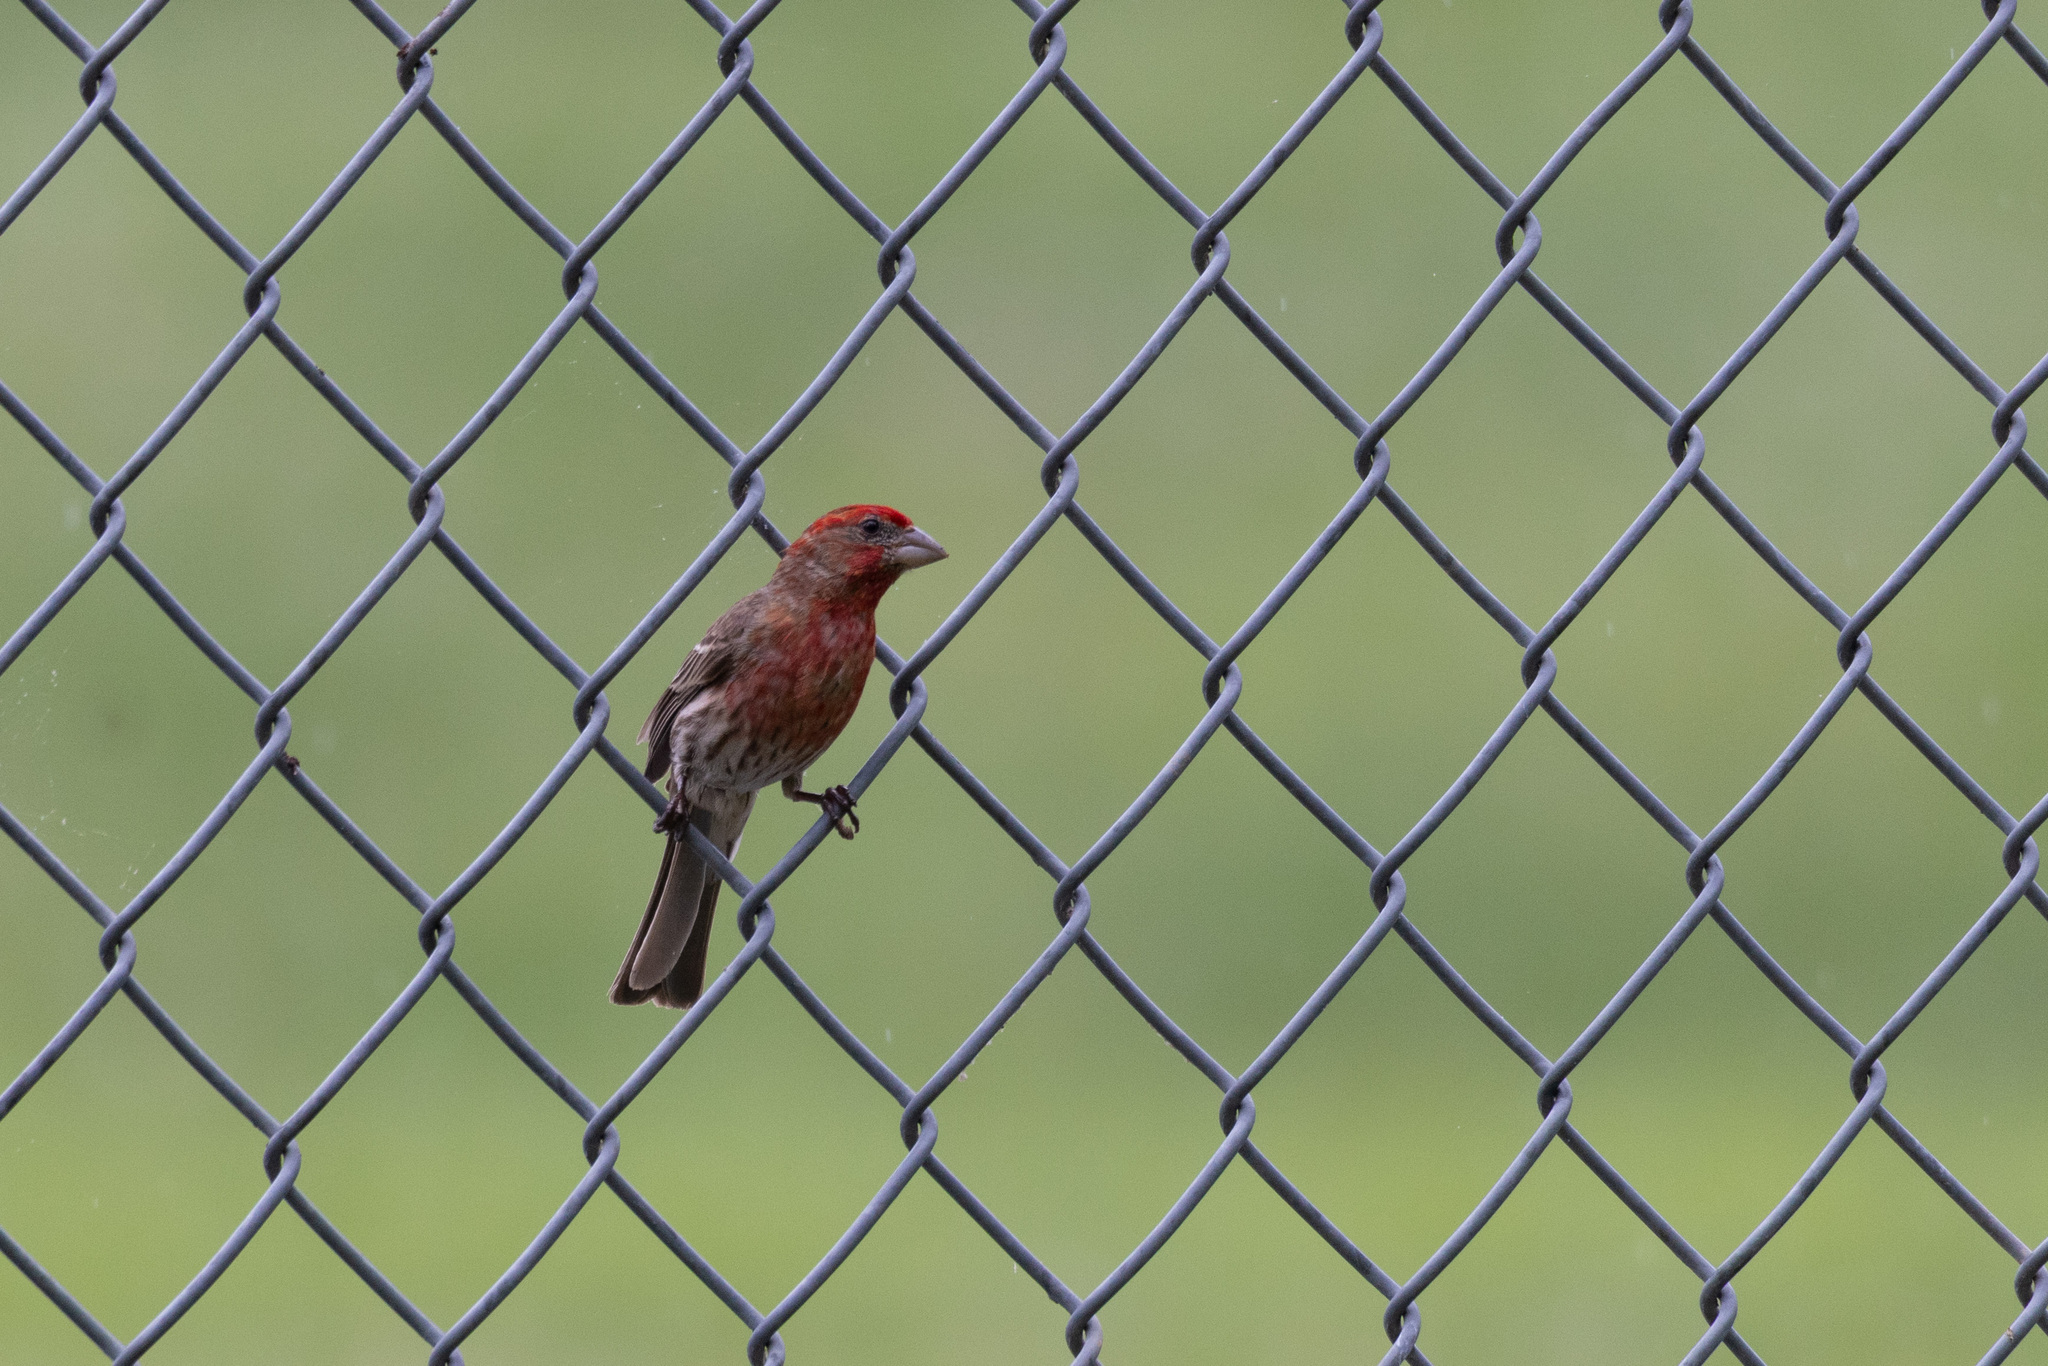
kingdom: Animalia
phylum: Chordata
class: Aves
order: Passeriformes
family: Fringillidae
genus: Haemorhous
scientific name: Haemorhous mexicanus
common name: House finch
